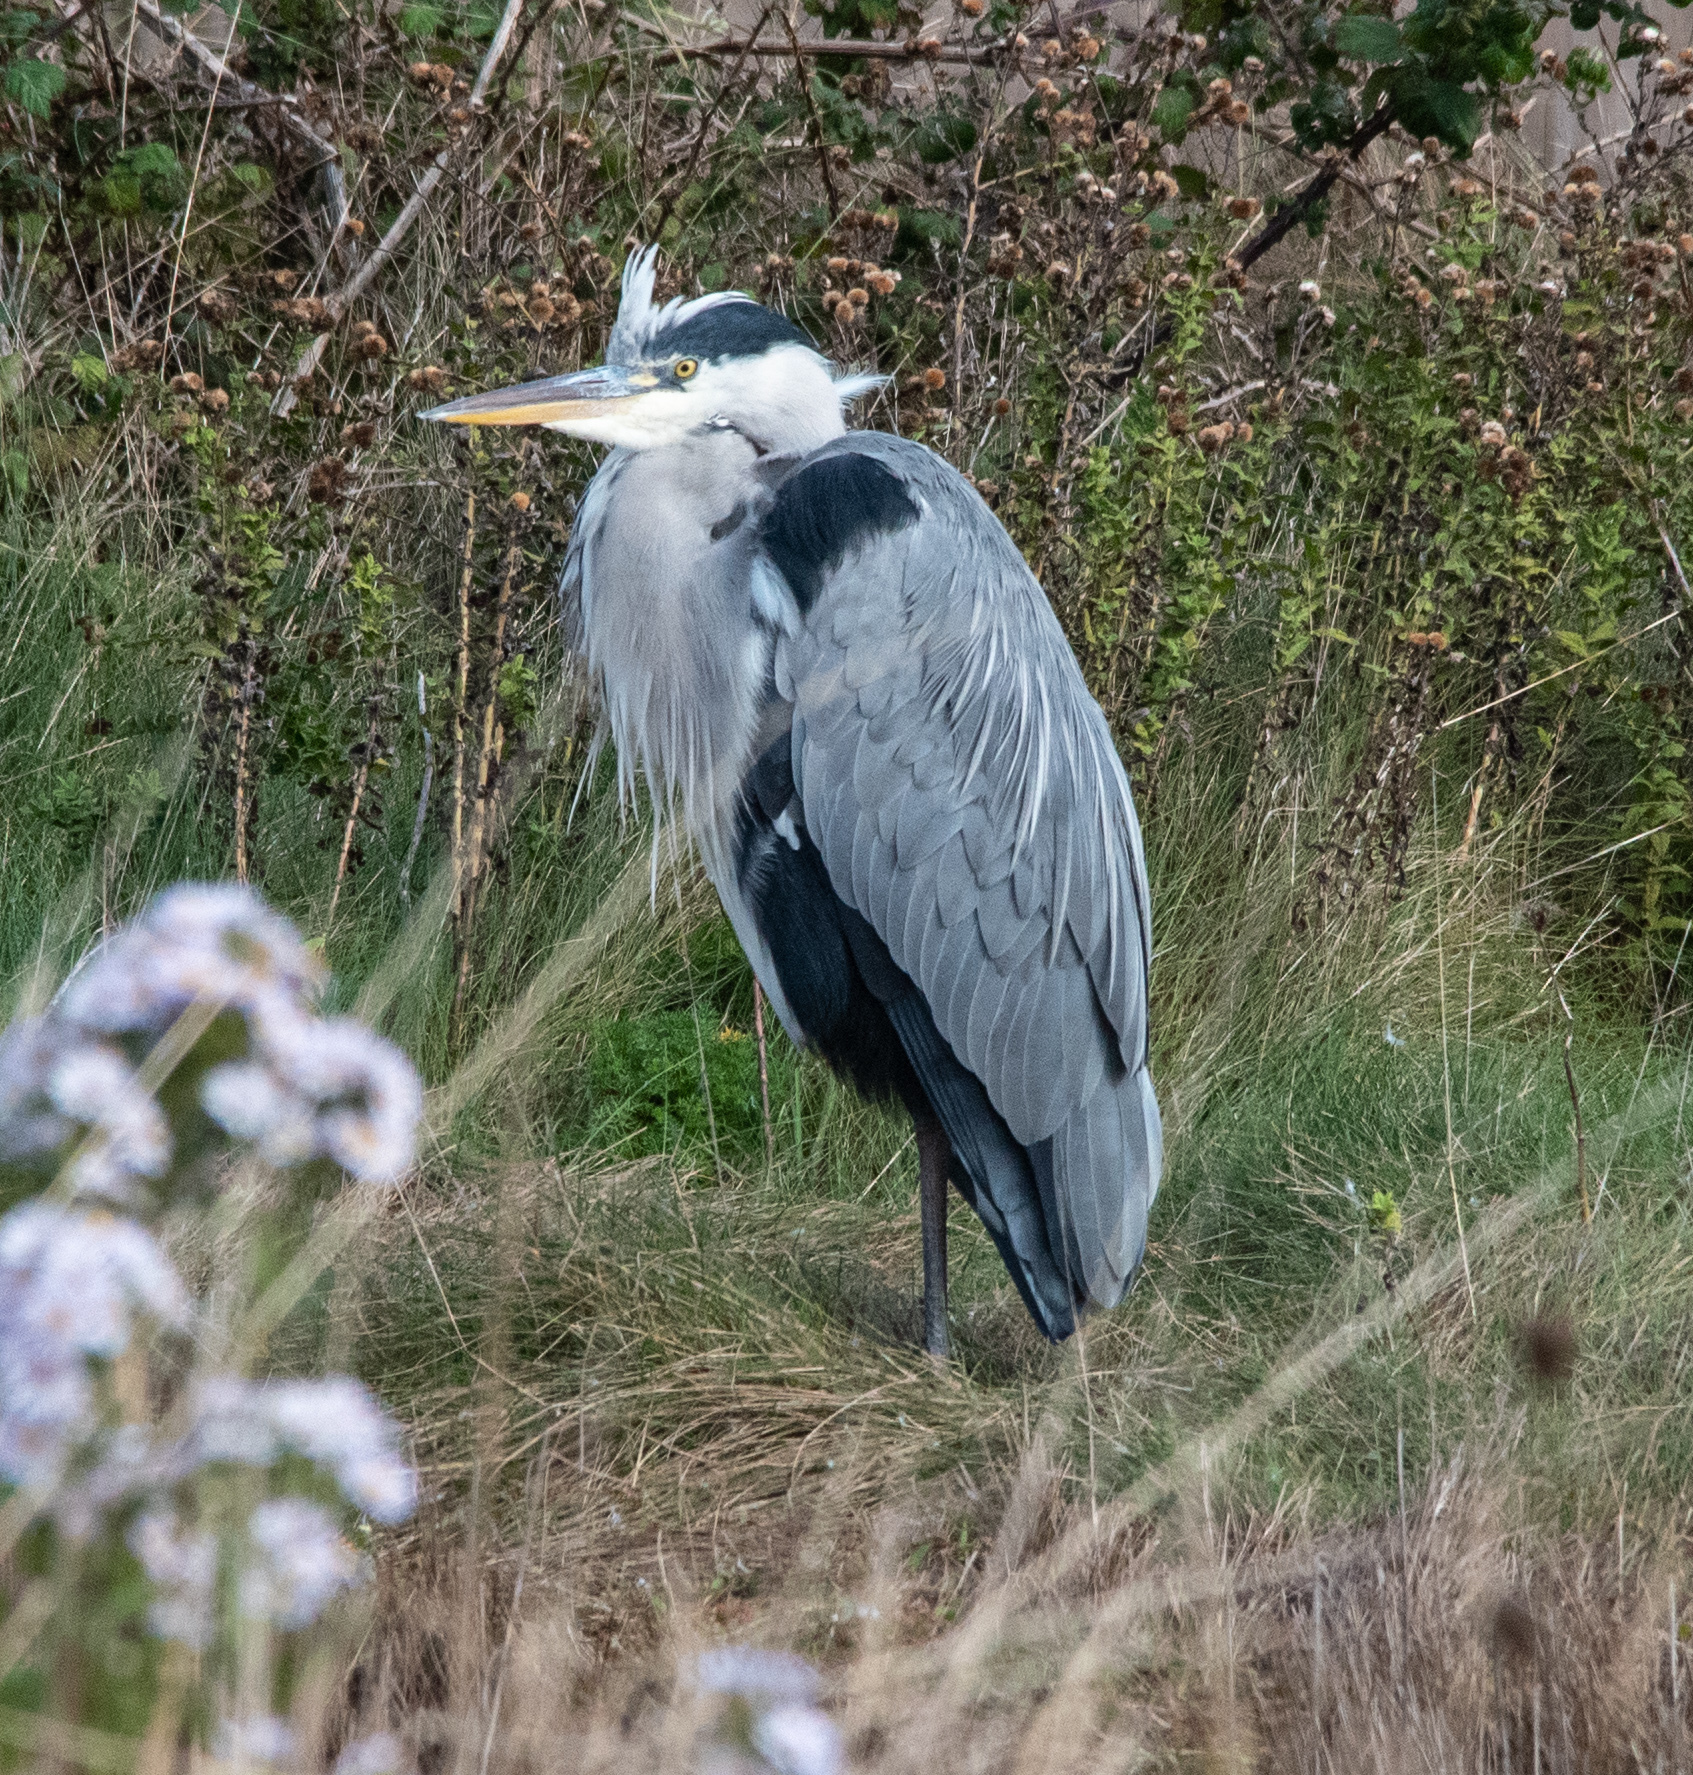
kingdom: Animalia
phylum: Chordata
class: Aves
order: Pelecaniformes
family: Ardeidae
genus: Ardea
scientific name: Ardea cinerea
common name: Grey heron
